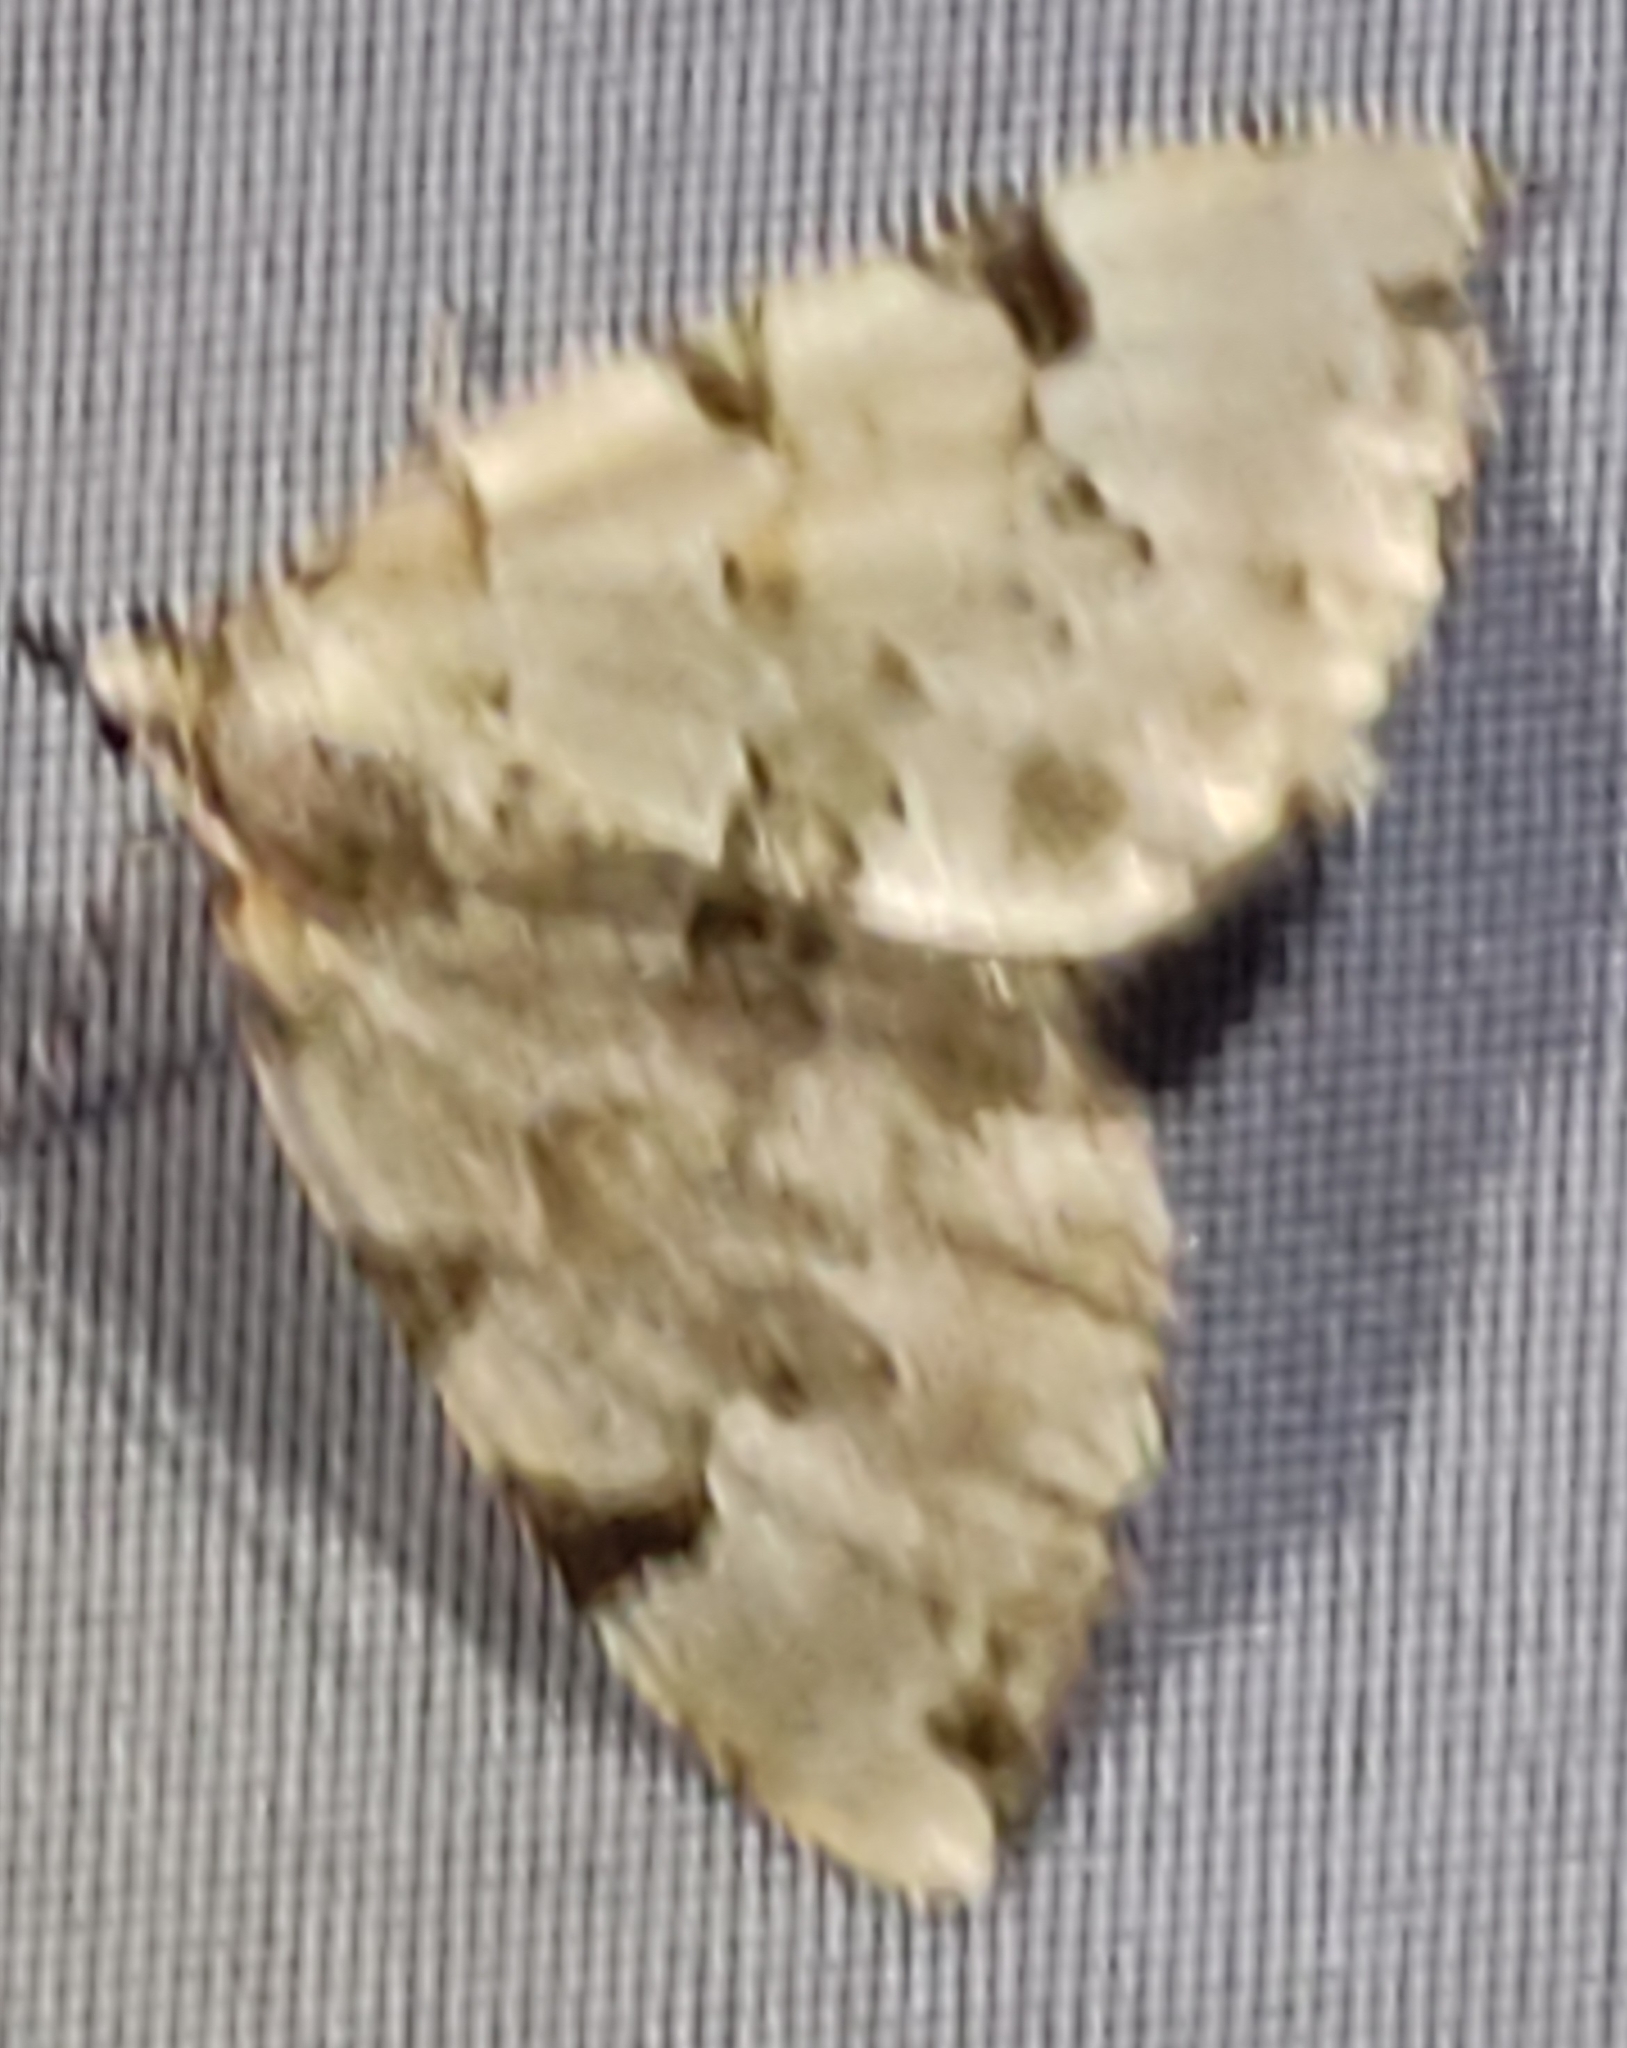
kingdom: Animalia
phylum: Arthropoda
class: Insecta
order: Lepidoptera
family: Geometridae
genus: Colostygia
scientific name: Colostygia pectinataria
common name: Green carpet
